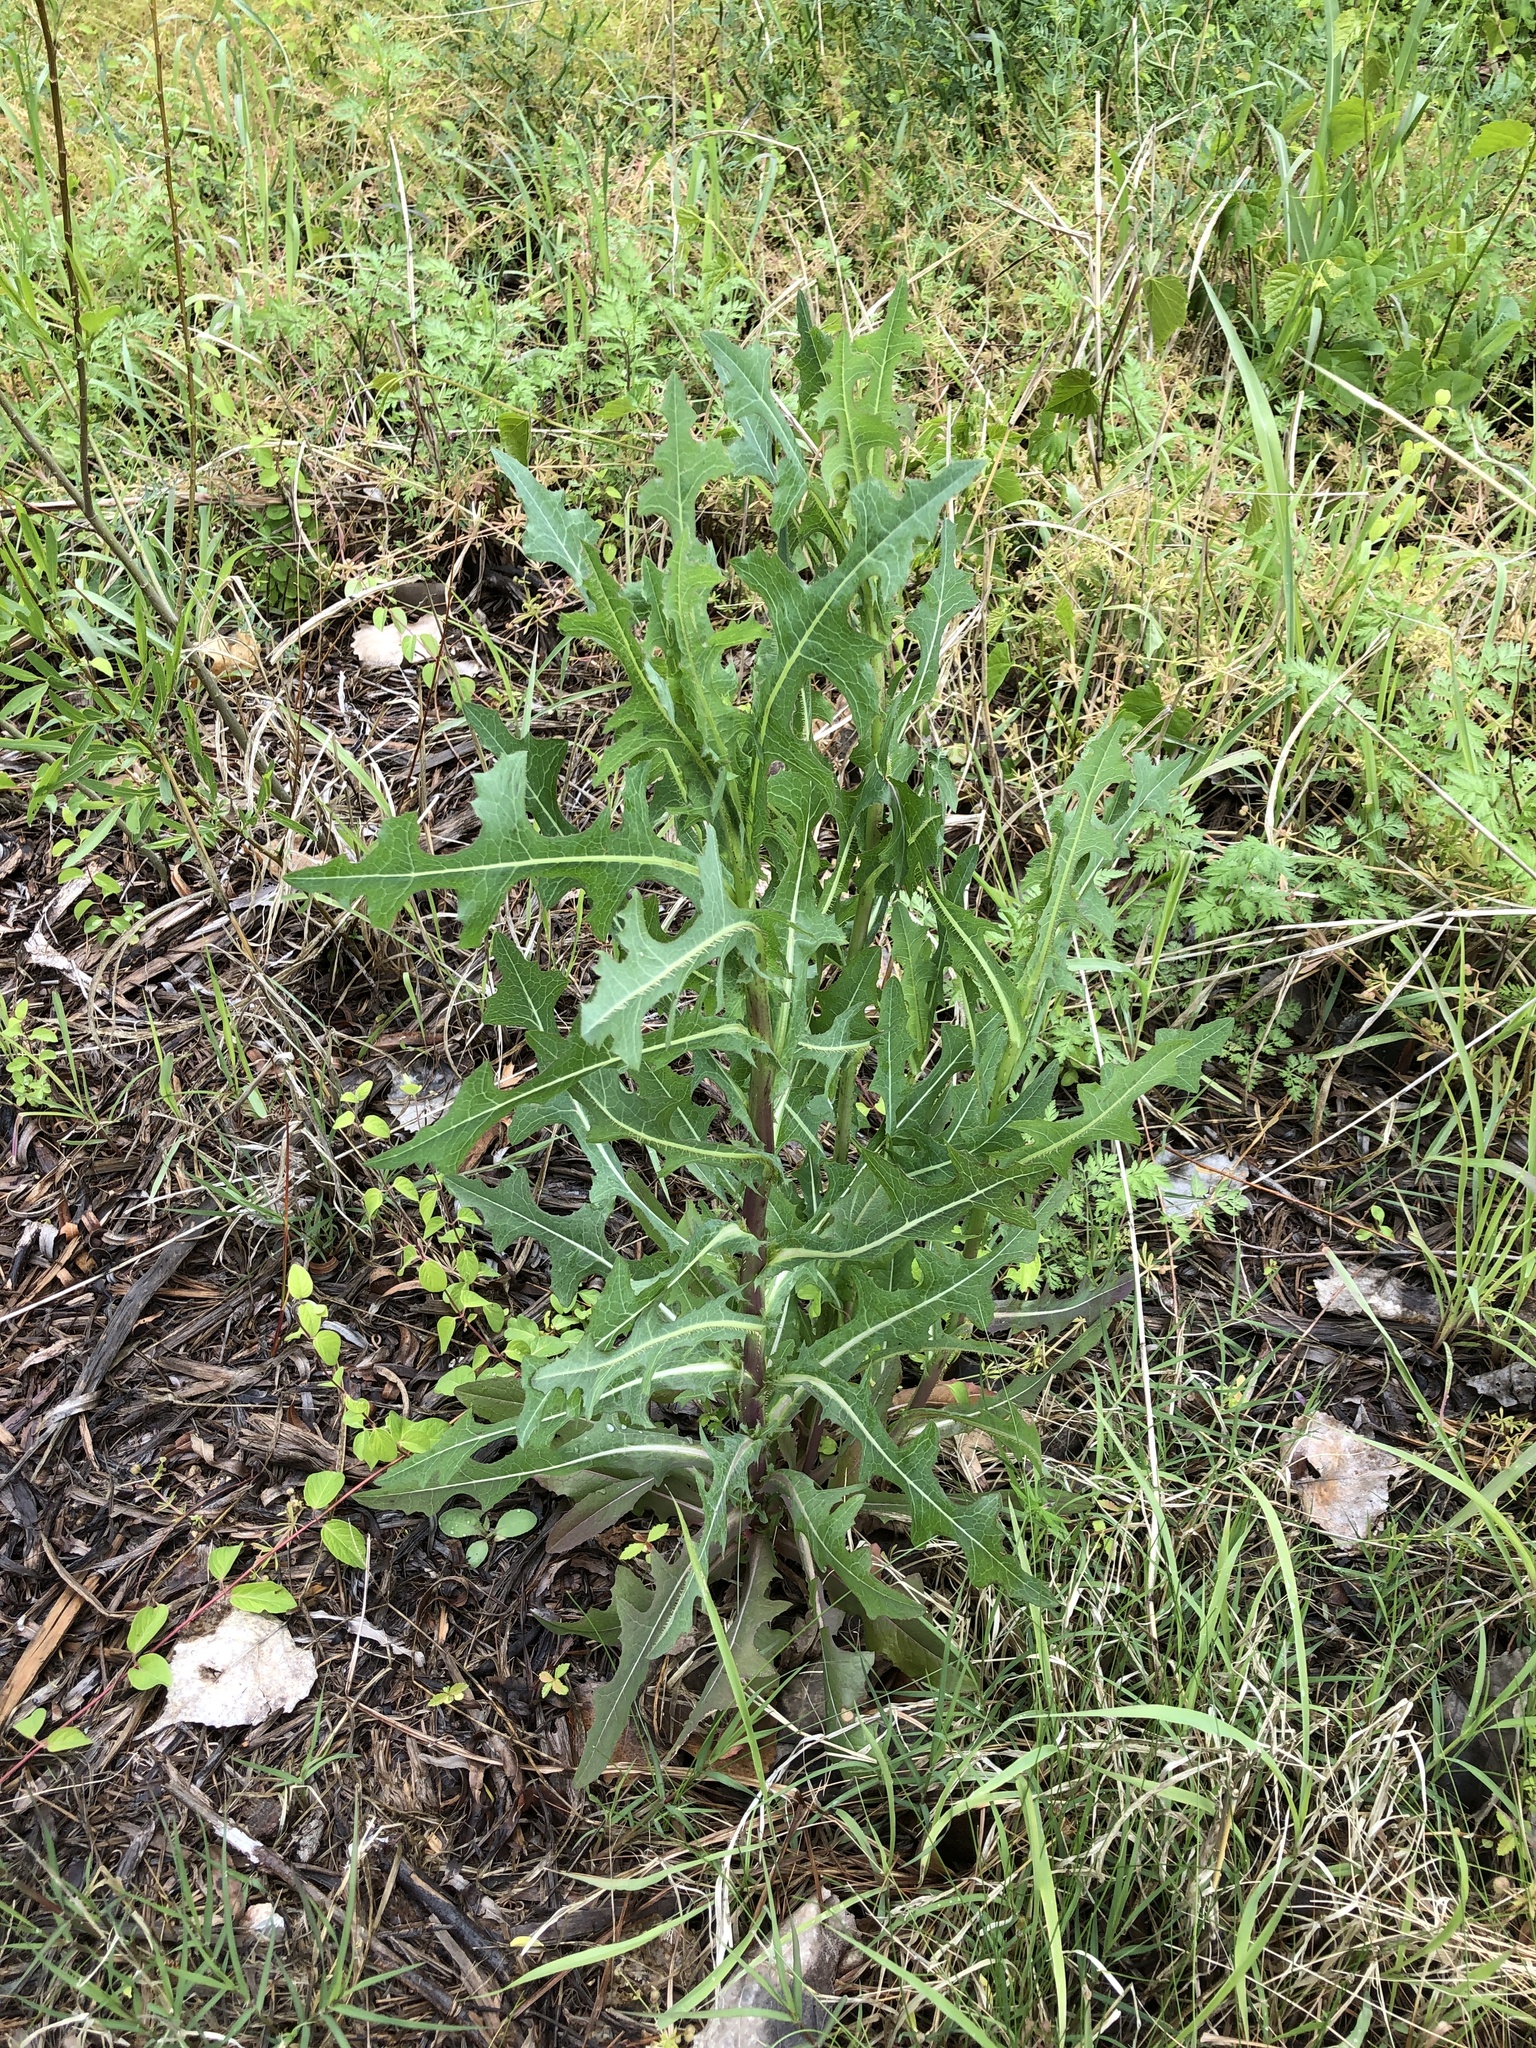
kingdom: Plantae
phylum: Tracheophyta
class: Magnoliopsida
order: Asterales
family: Asteraceae
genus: Lactuca
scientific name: Lactuca serriola
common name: Prickly lettuce
